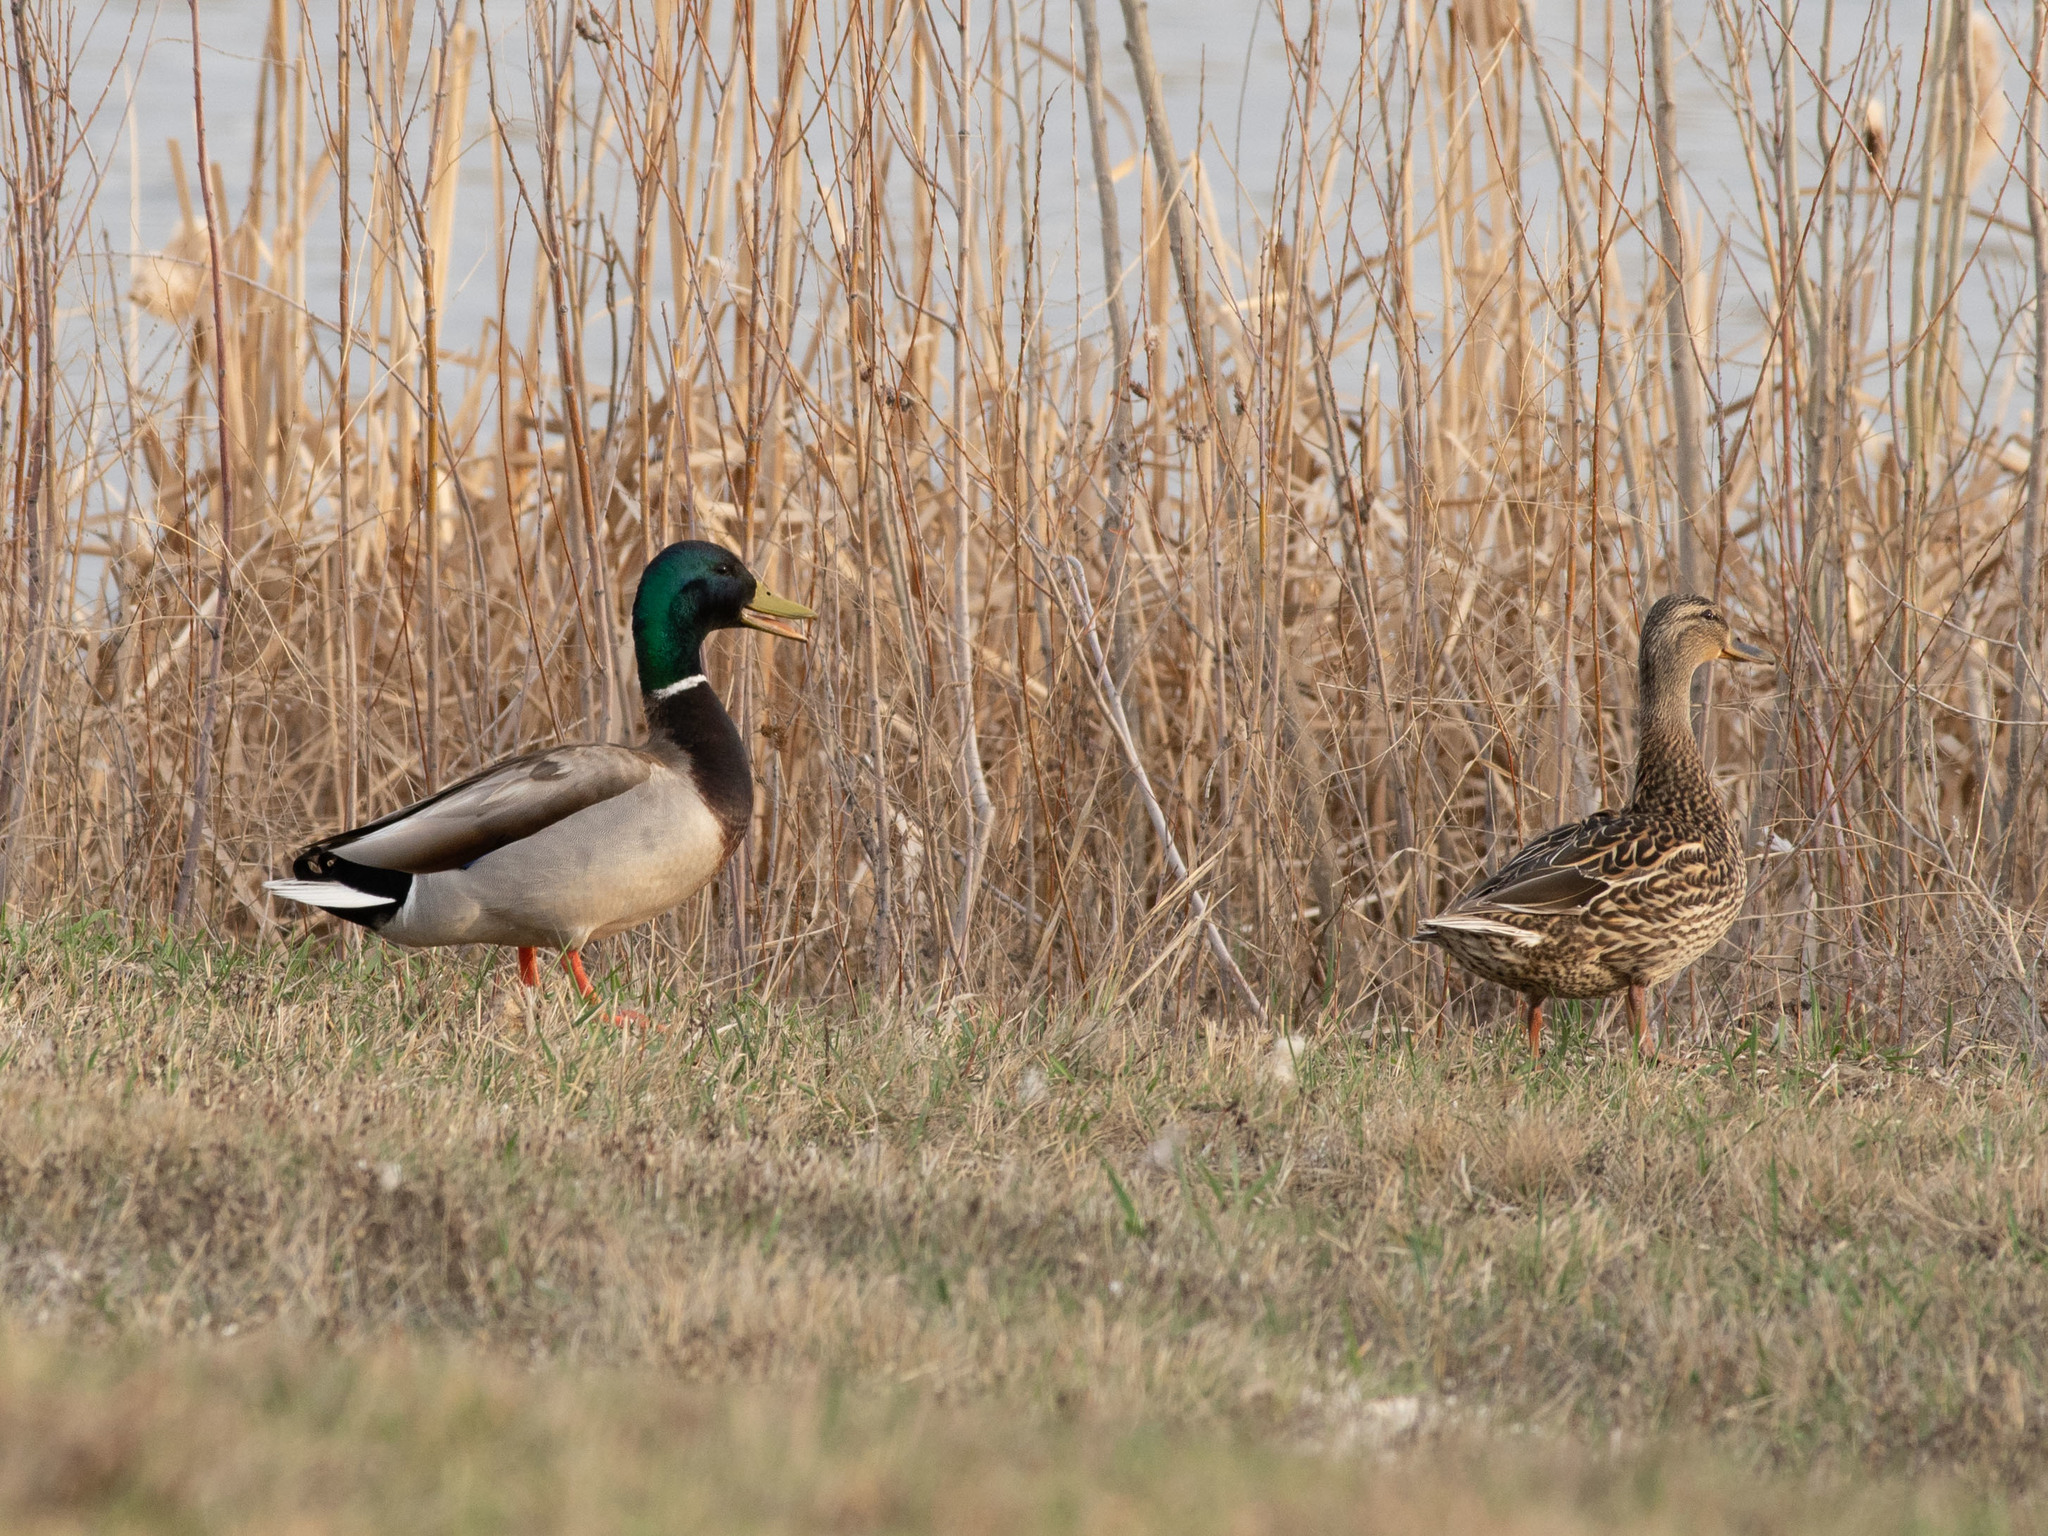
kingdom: Animalia
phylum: Chordata
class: Aves
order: Anseriformes
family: Anatidae
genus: Anas
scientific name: Anas platyrhynchos
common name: Mallard
